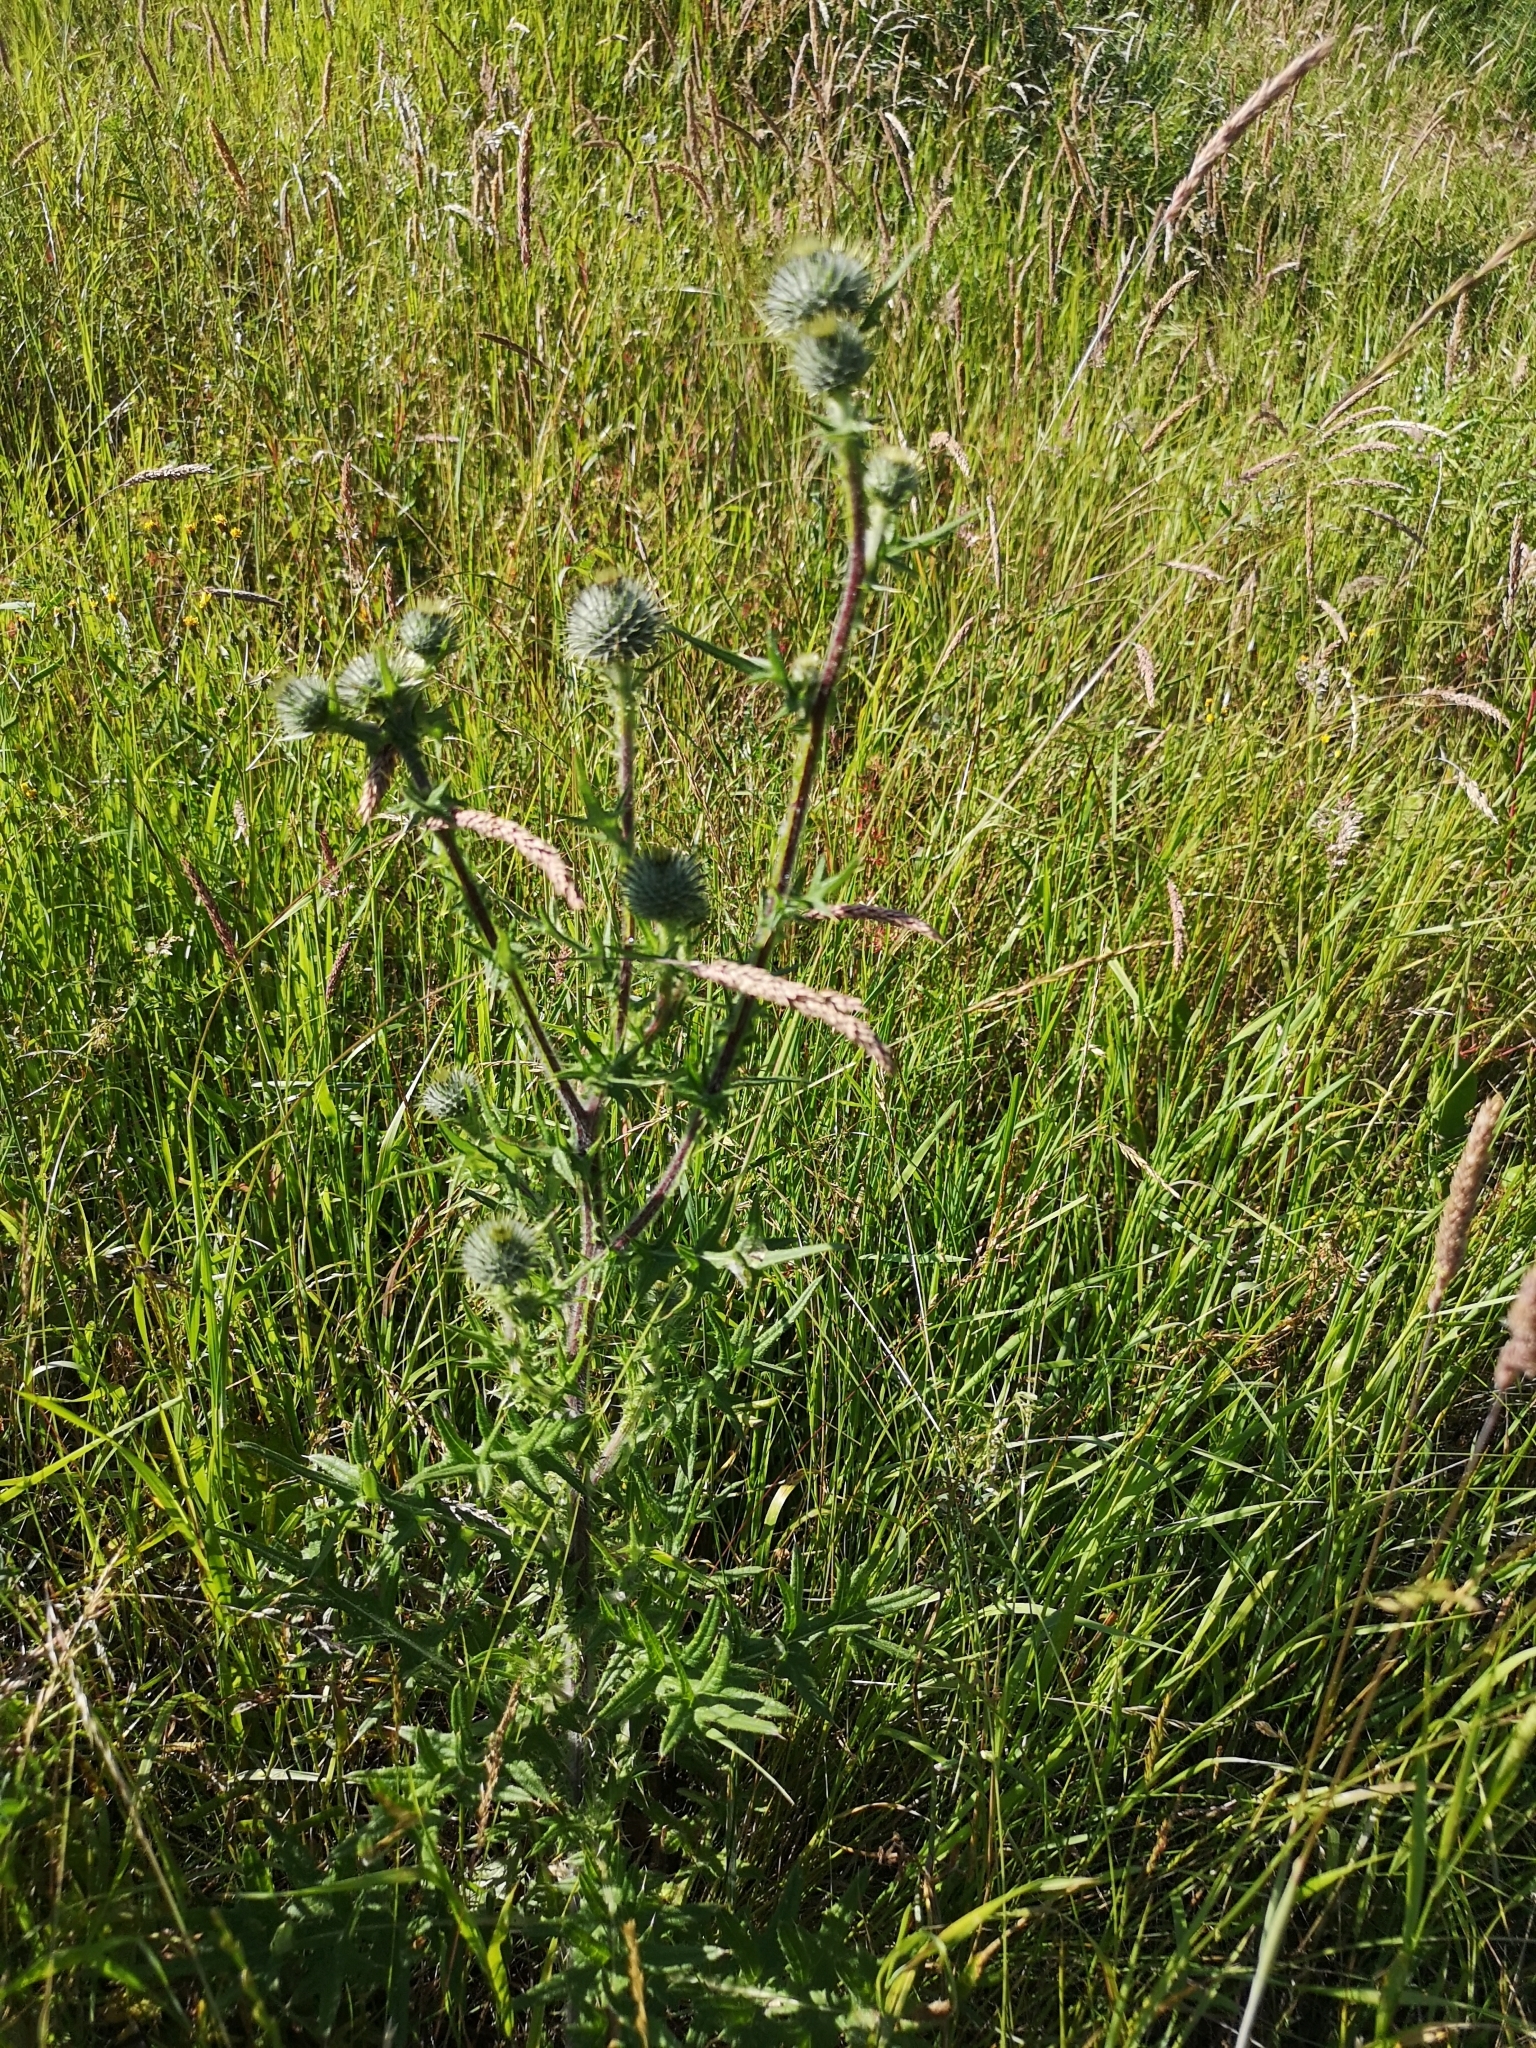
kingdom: Plantae
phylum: Tracheophyta
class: Magnoliopsida
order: Asterales
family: Asteraceae
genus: Cirsium
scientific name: Cirsium vulgare
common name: Bull thistle
